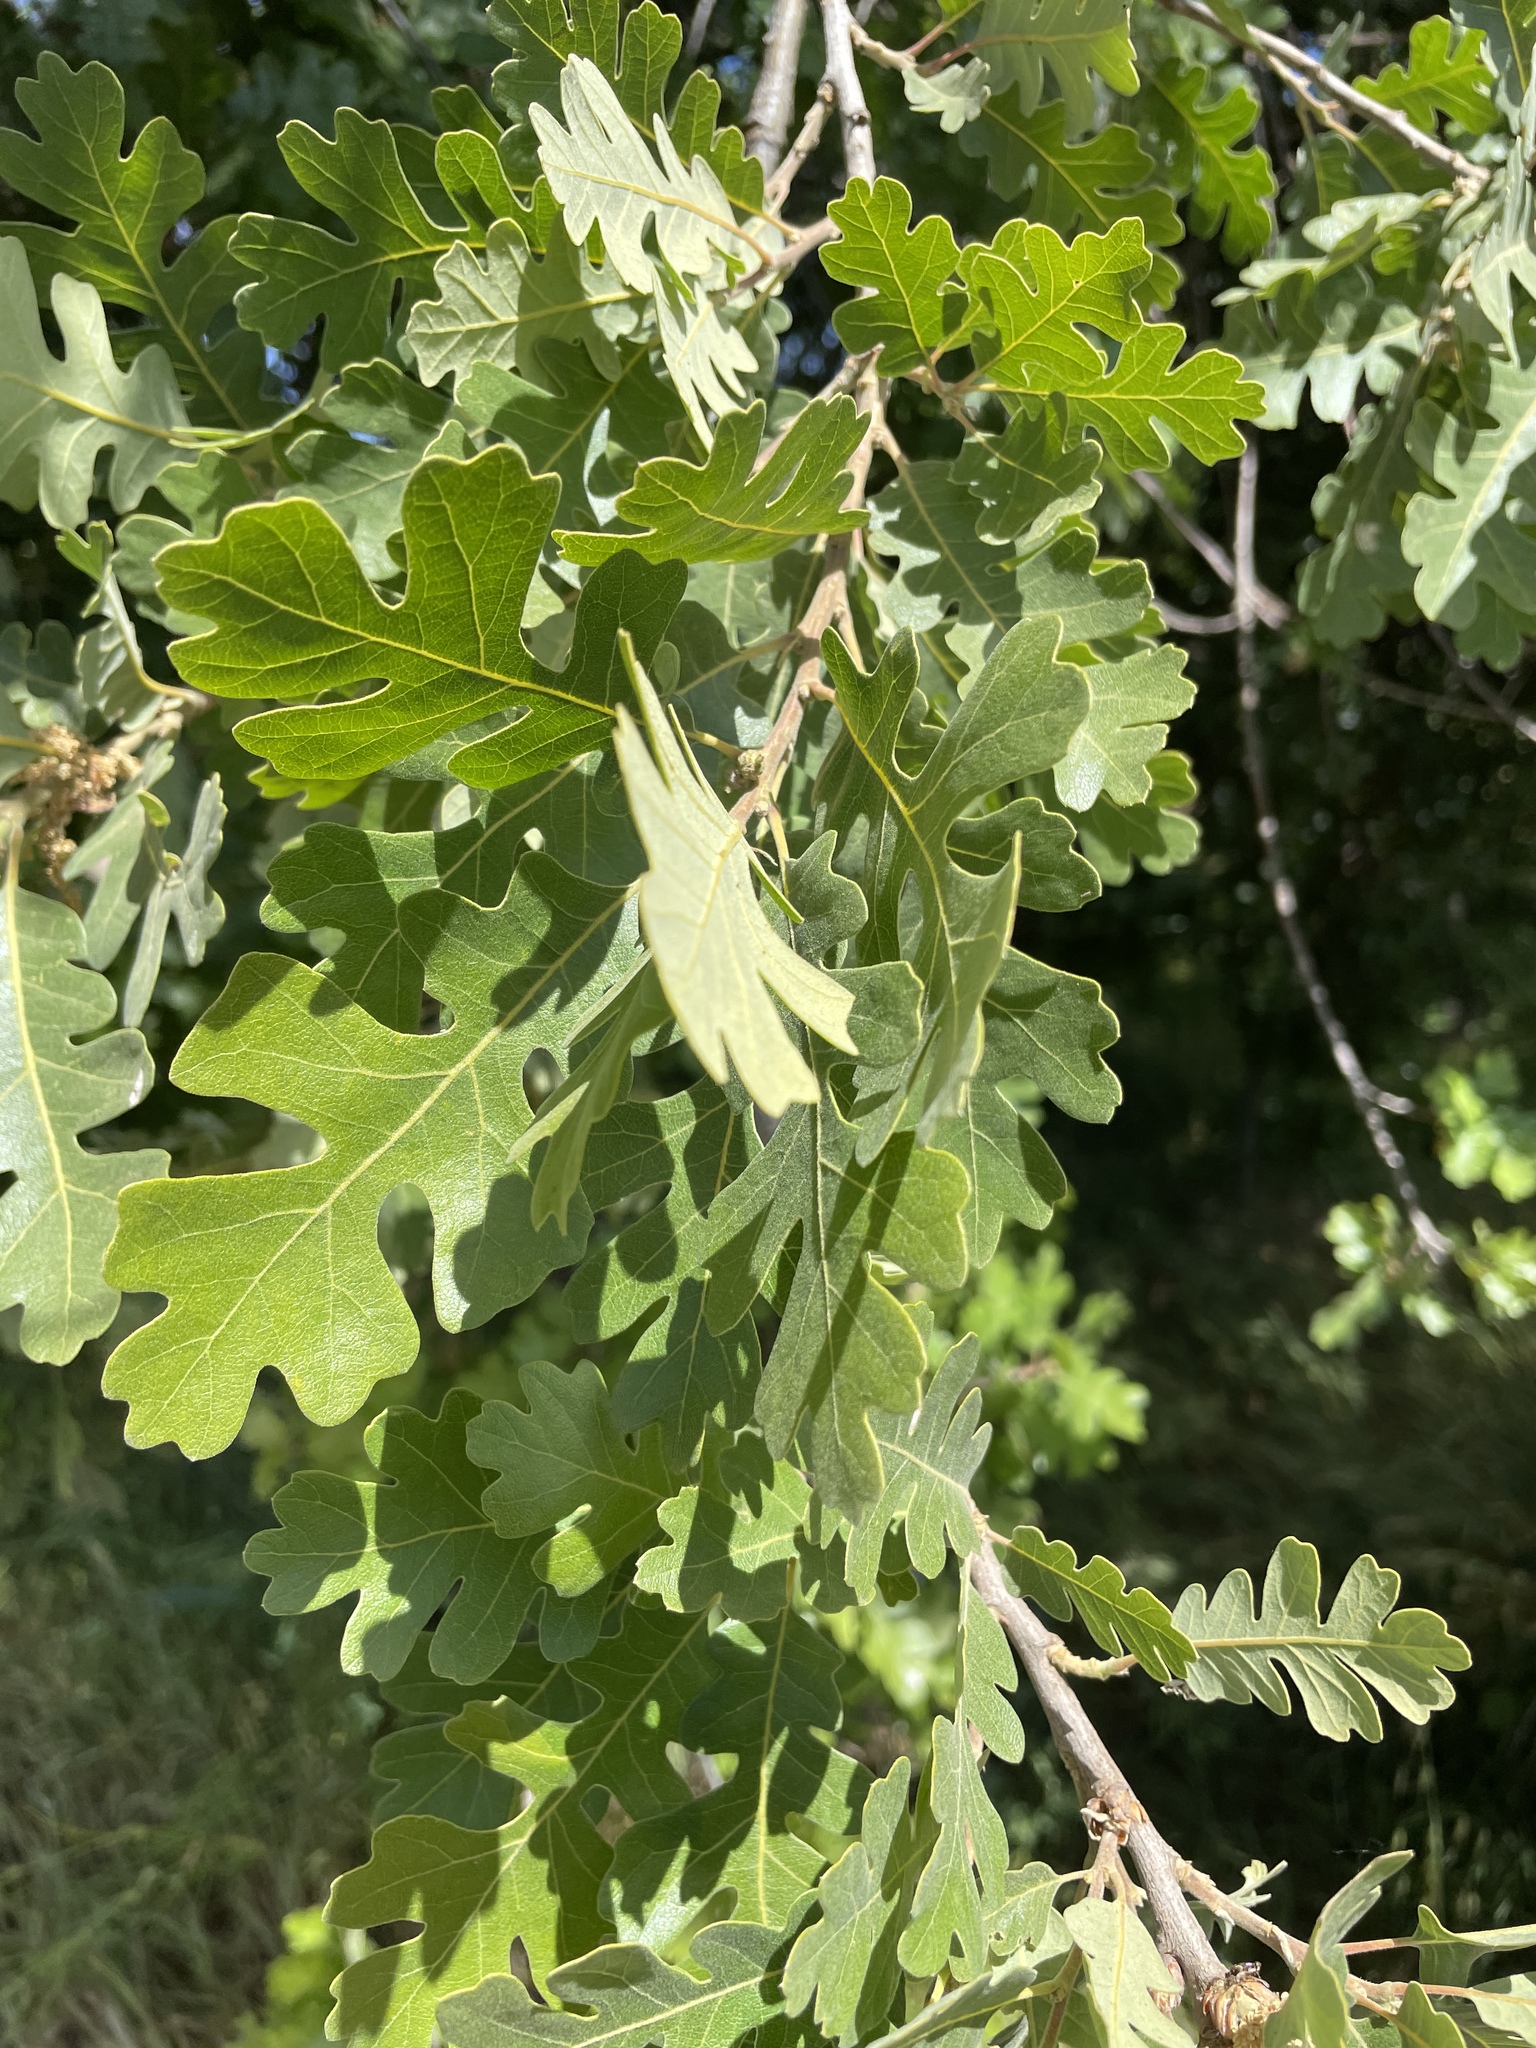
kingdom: Plantae
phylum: Tracheophyta
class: Magnoliopsida
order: Fagales
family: Fagaceae
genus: Quercus
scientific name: Quercus lobata
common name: Valley oak
